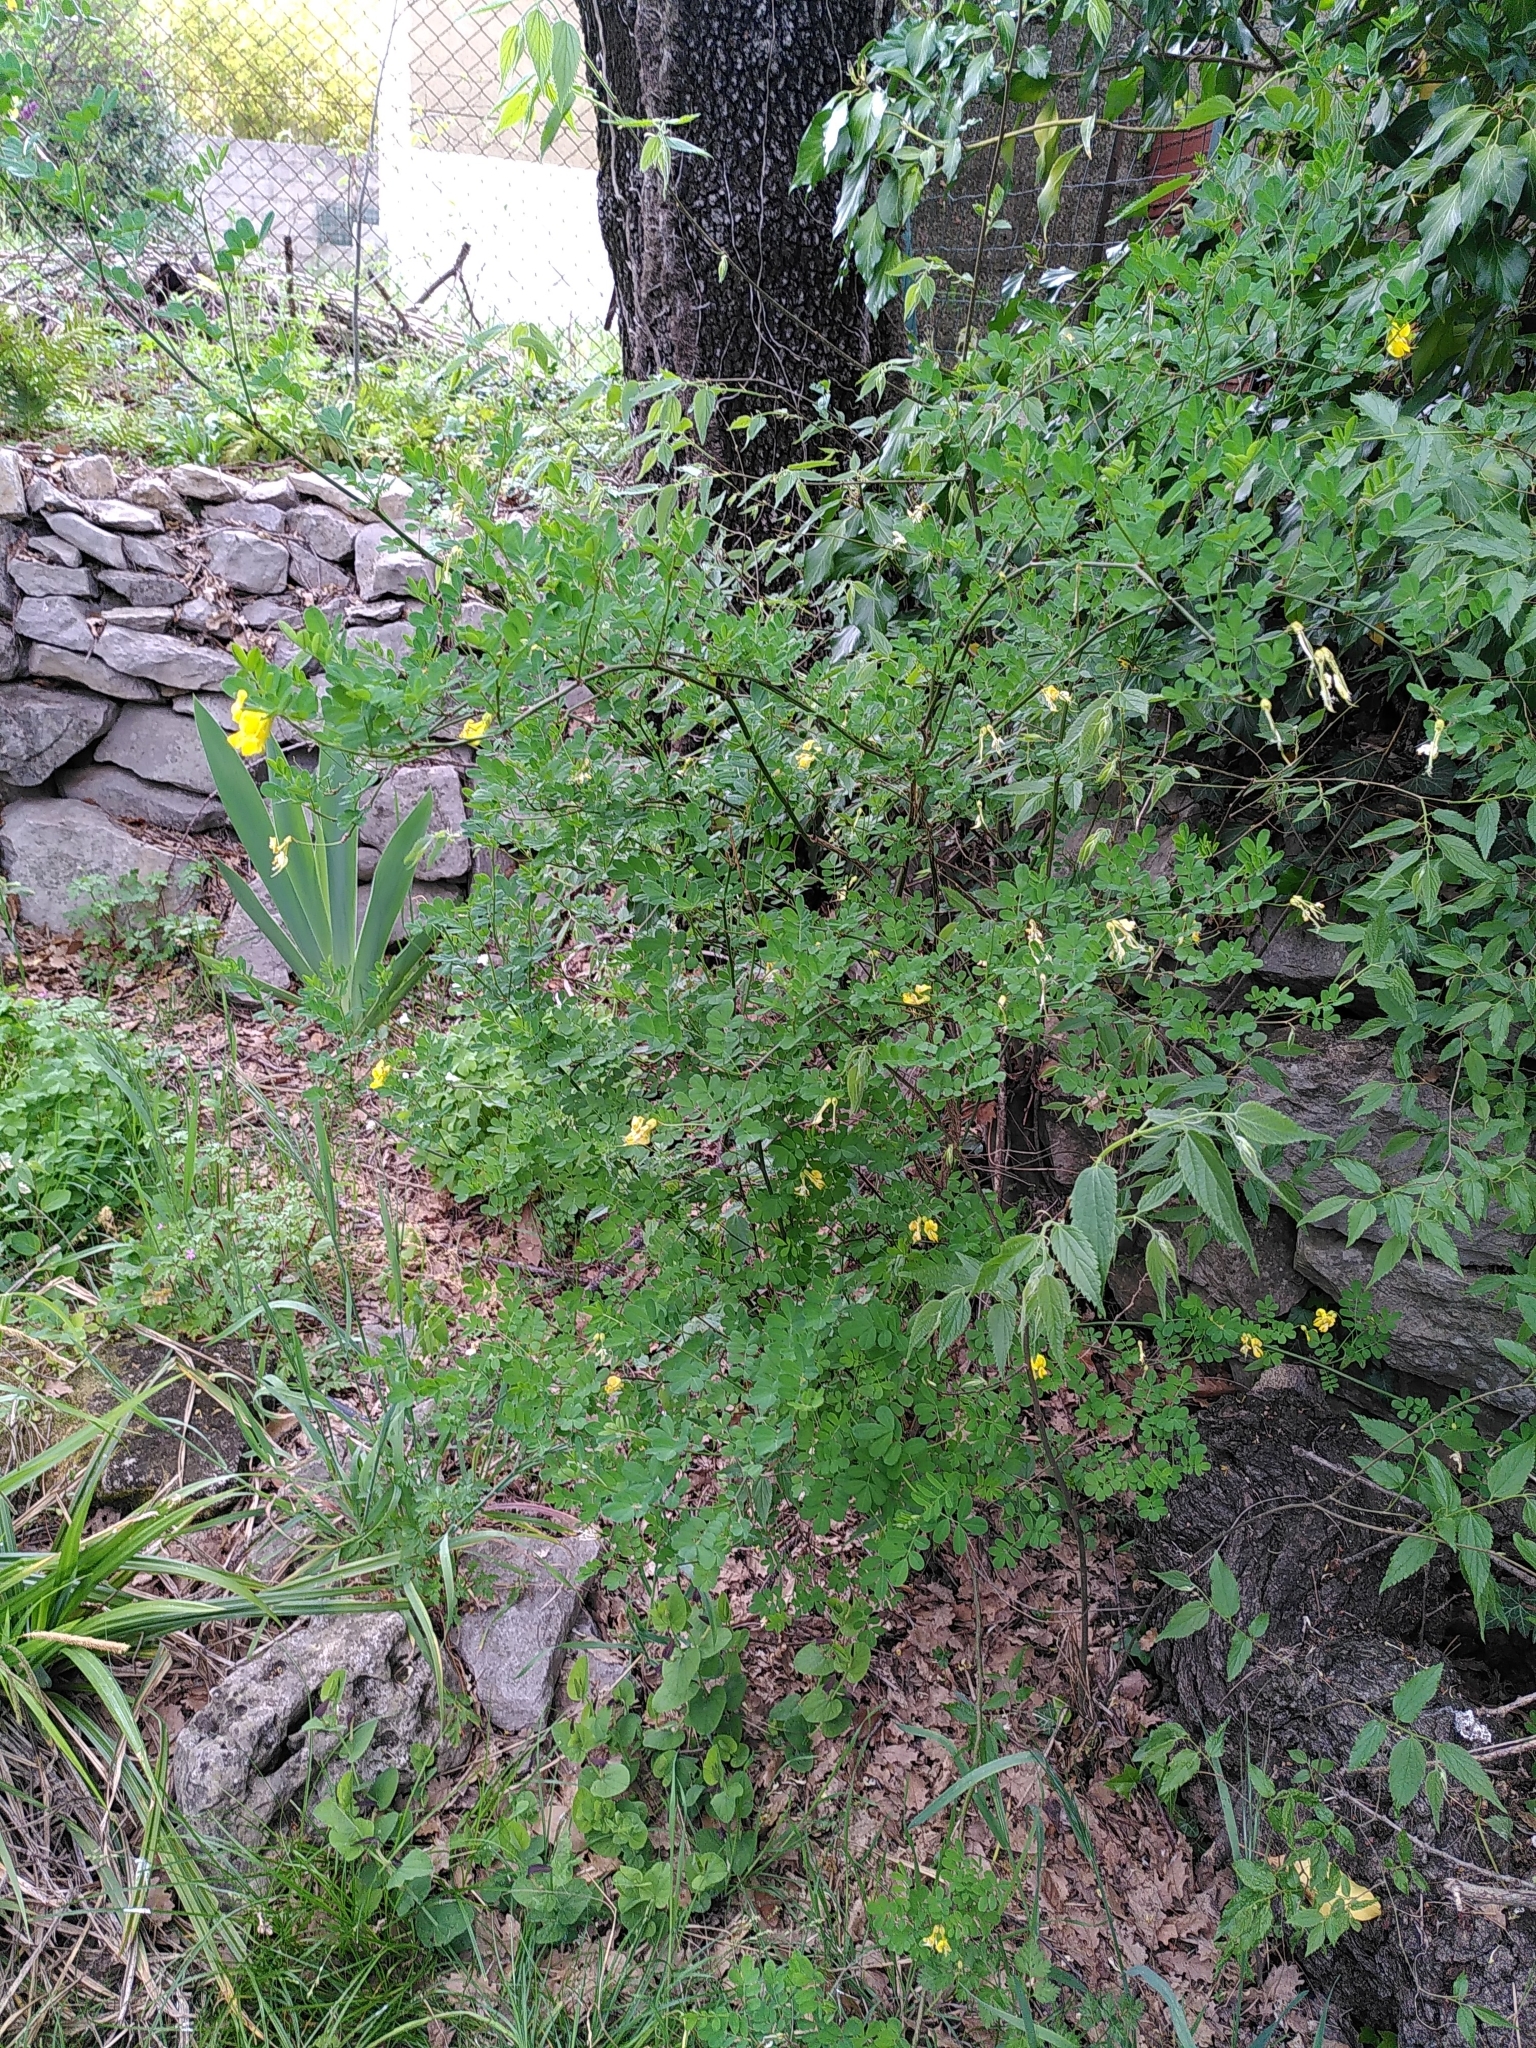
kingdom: Plantae
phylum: Tracheophyta
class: Magnoliopsida
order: Fabales
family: Fabaceae
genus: Hippocrepis
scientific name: Hippocrepis emerus
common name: Scorpion senna
